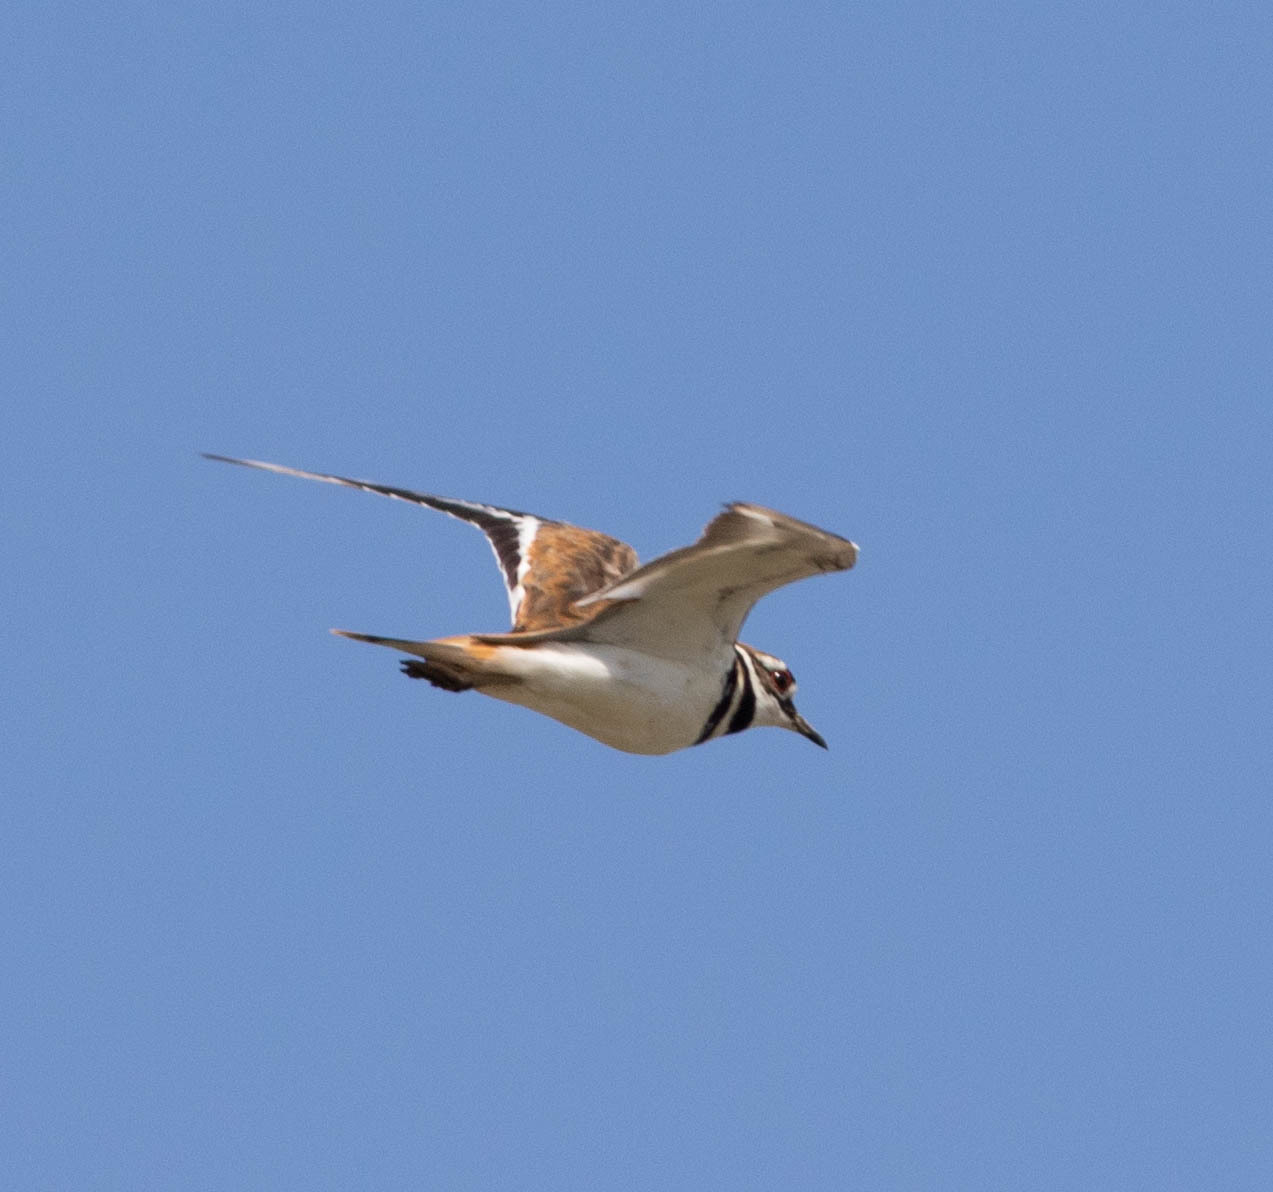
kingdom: Animalia
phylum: Chordata
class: Aves
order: Charadriiformes
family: Charadriidae
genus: Charadrius
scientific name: Charadrius vociferus
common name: Killdeer
